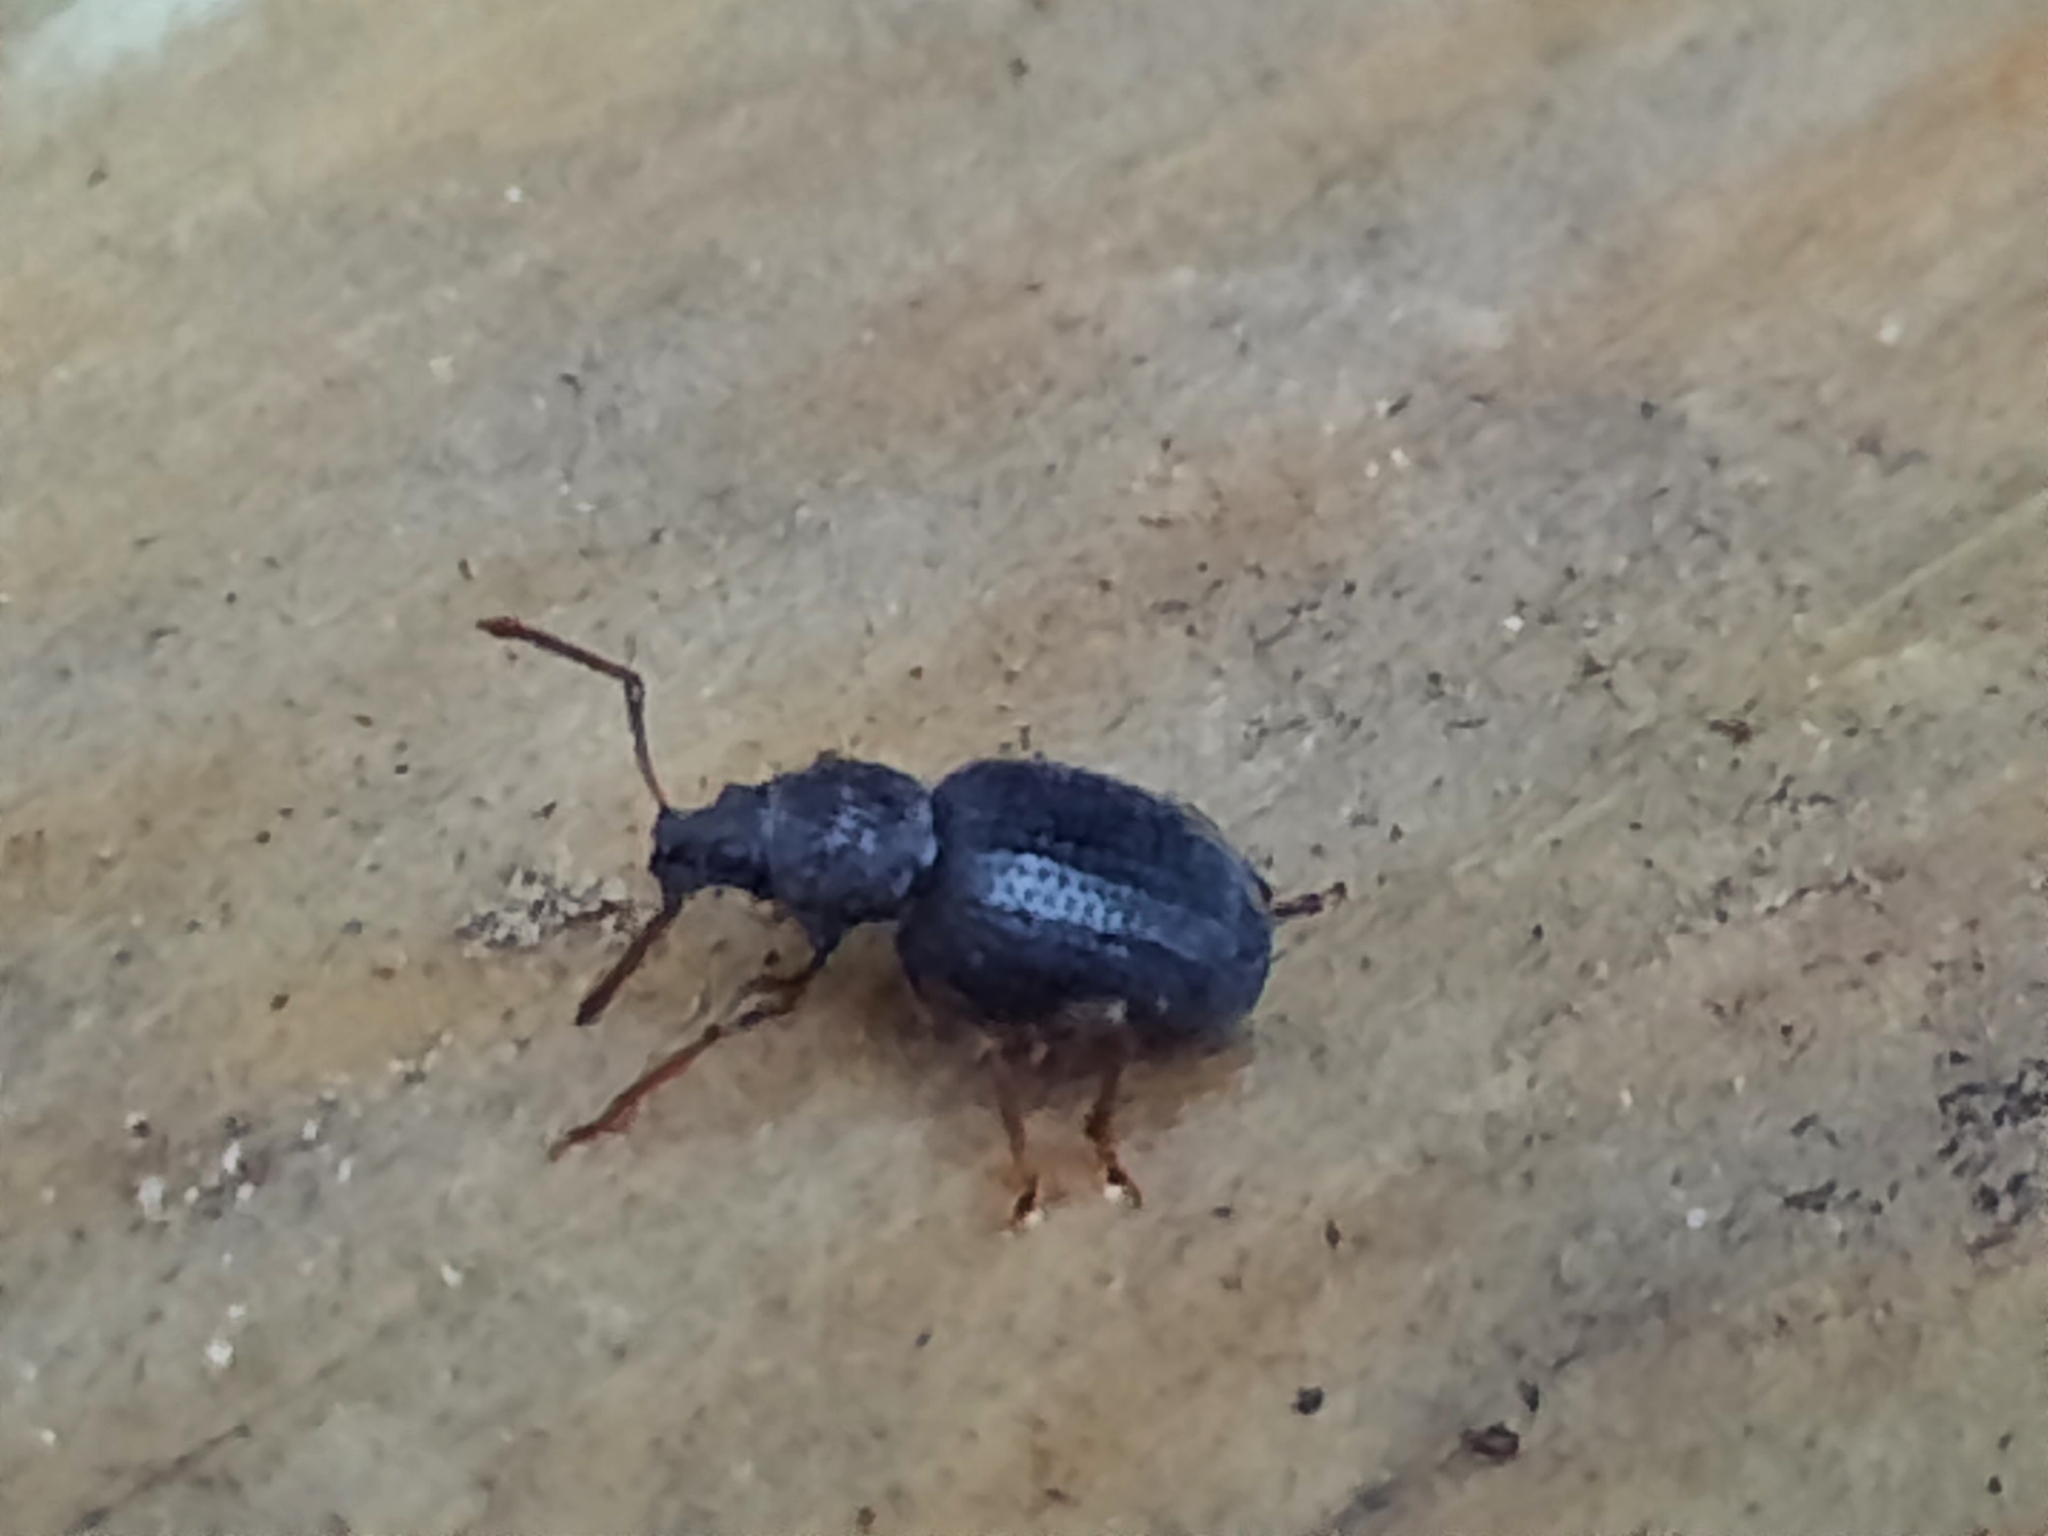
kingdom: Animalia
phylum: Arthropoda
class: Insecta
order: Coleoptera
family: Curculionidae
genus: Otiorhynchus
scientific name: Otiorhynchus ovatus
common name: Strawberry root weevil
